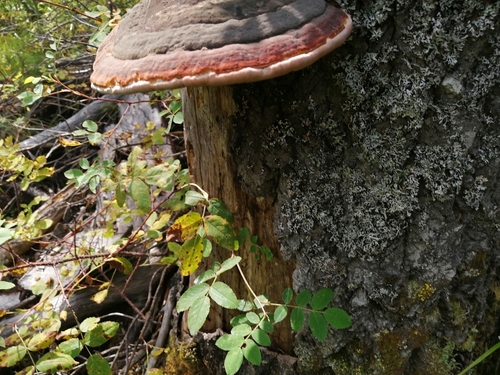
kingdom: Fungi
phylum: Basidiomycota
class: Agaricomycetes
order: Polyporales
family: Fomitopsidaceae
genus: Fomitopsis
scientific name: Fomitopsis pinicola
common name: Red-belted bracket
